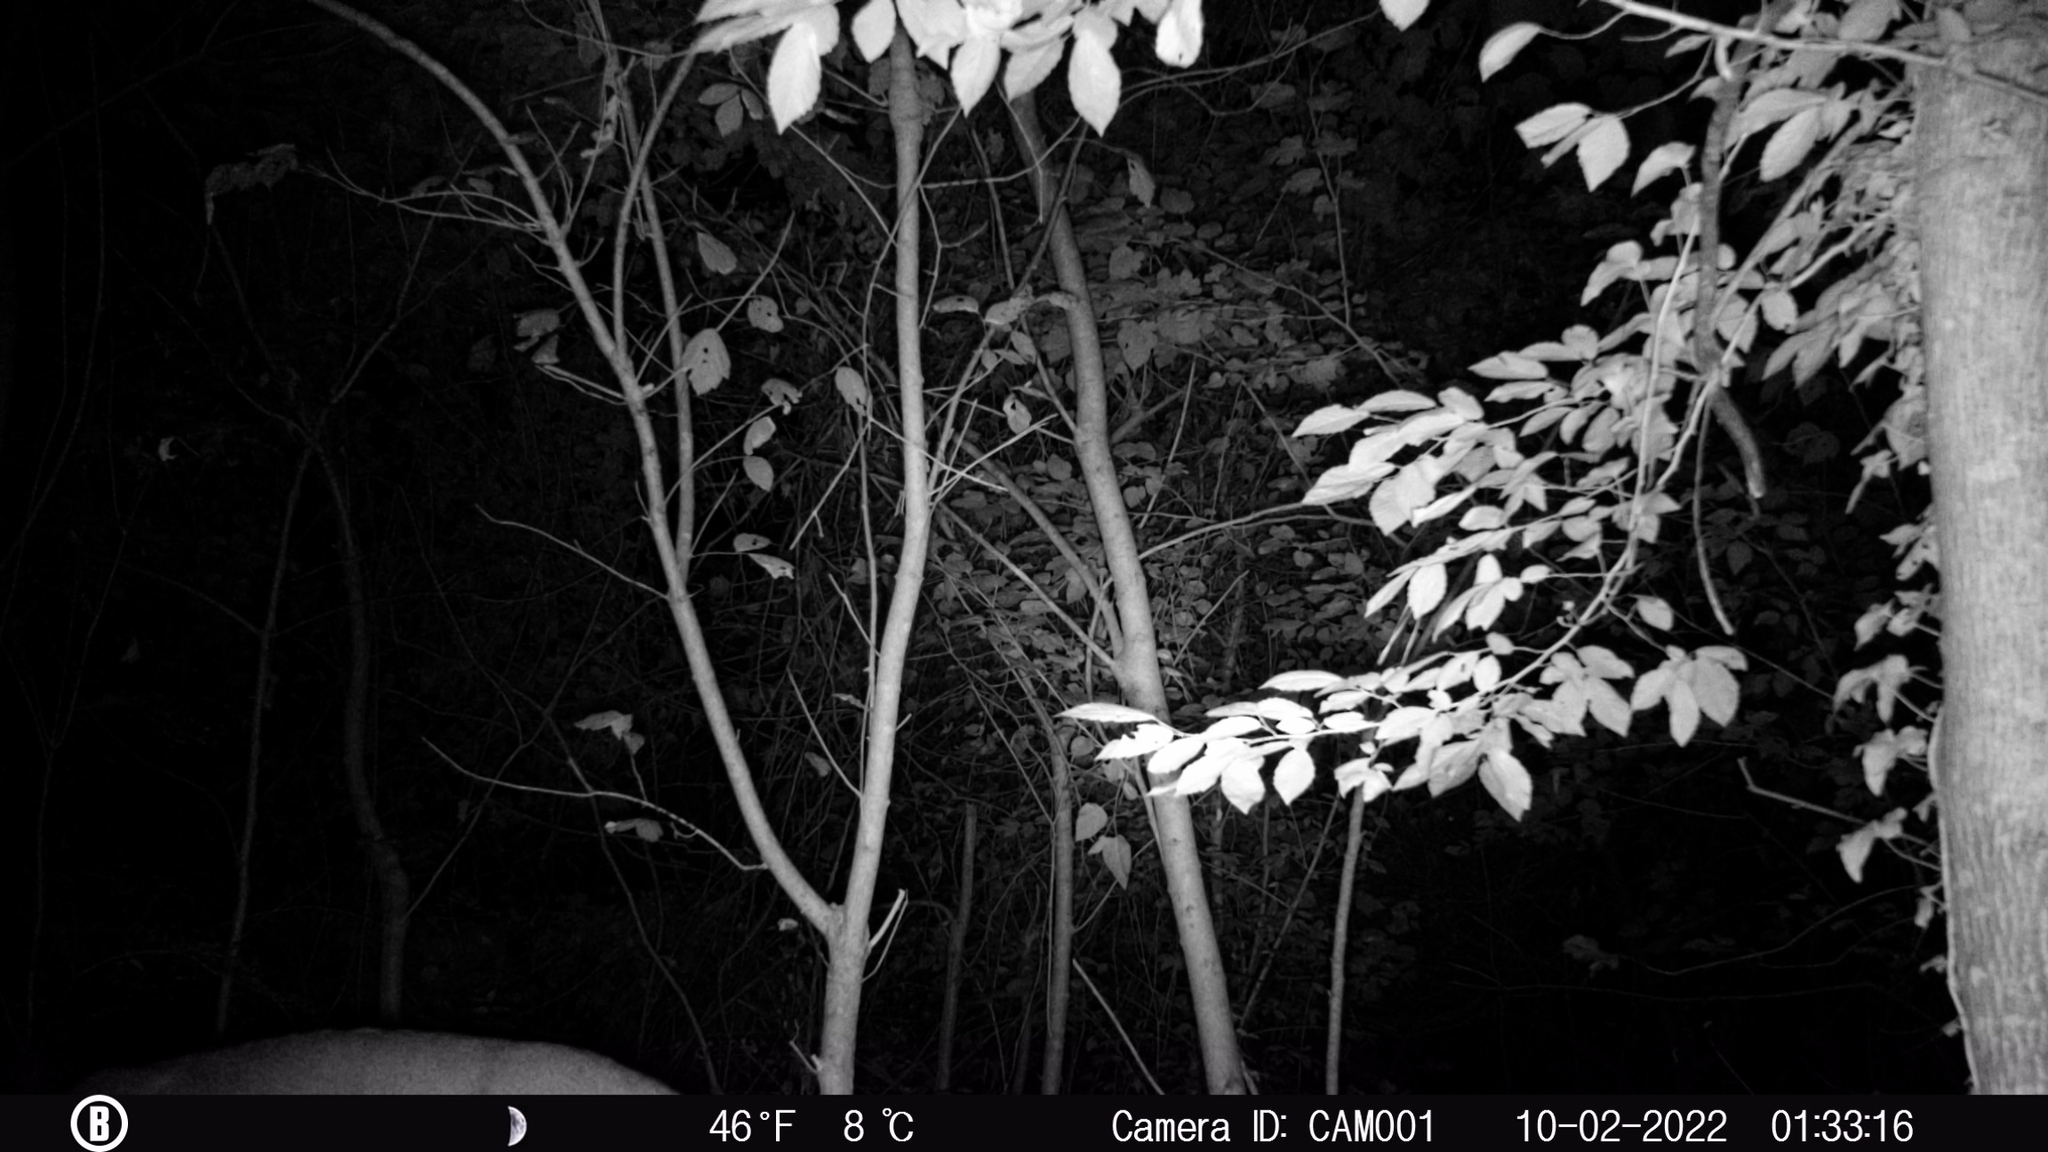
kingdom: Animalia
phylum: Chordata
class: Mammalia
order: Artiodactyla
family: Cervidae
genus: Odocoileus
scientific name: Odocoileus virginianus
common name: White-tailed deer
